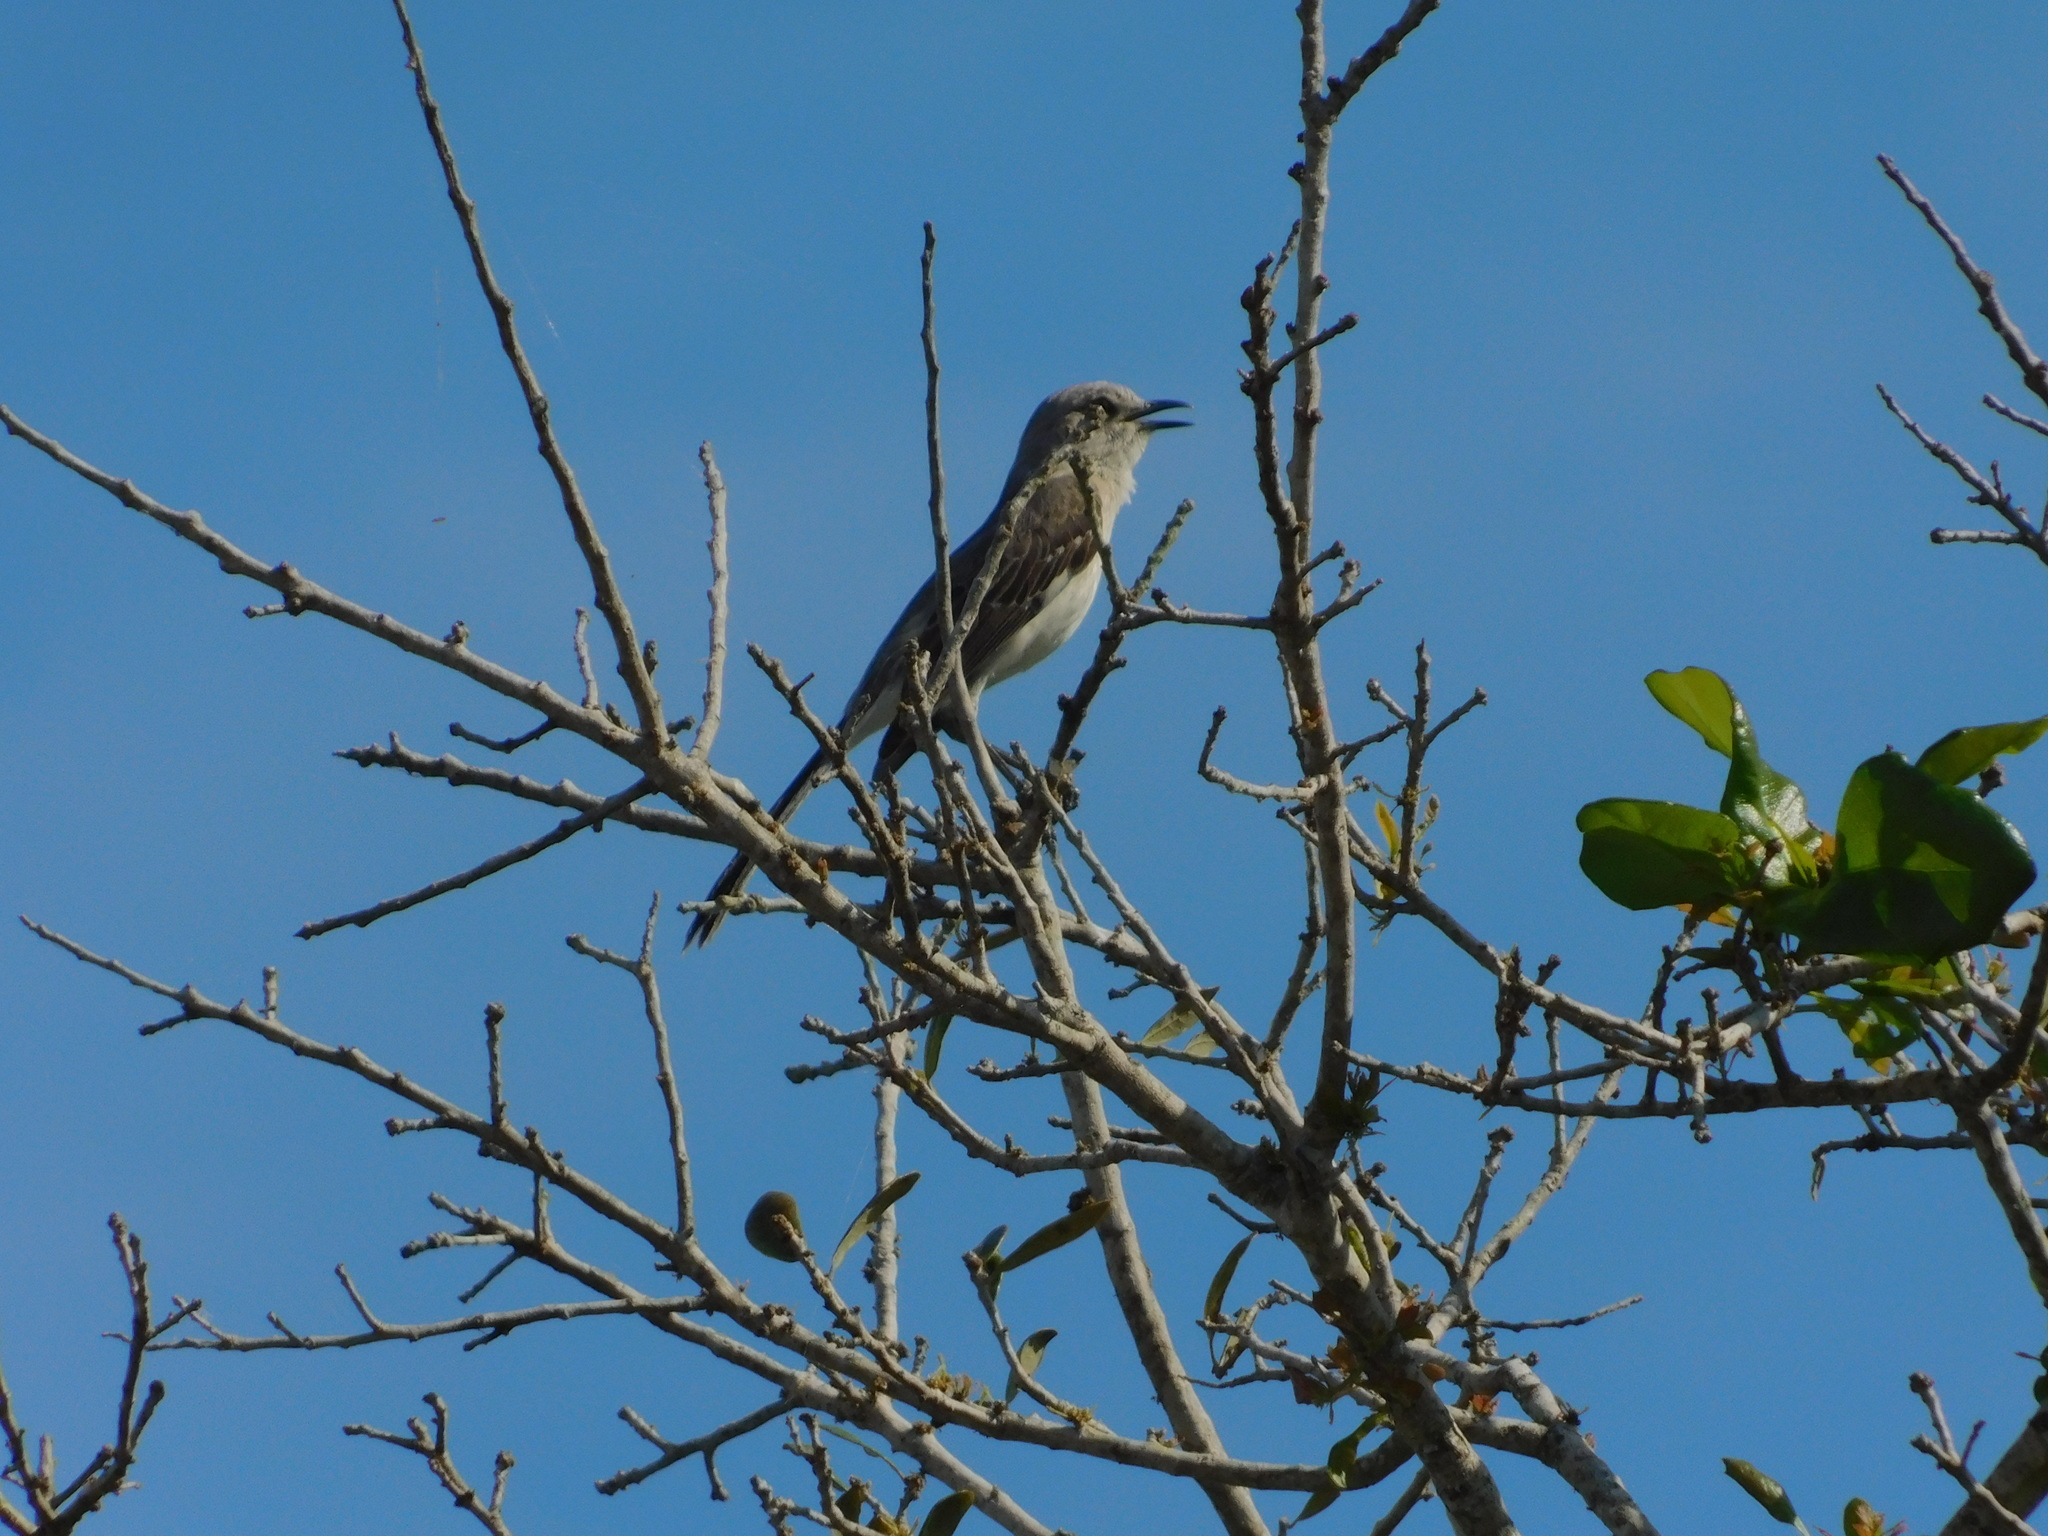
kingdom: Animalia
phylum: Chordata
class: Aves
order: Passeriformes
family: Mimidae
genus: Mimus
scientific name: Mimus polyglottos
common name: Northern mockingbird
